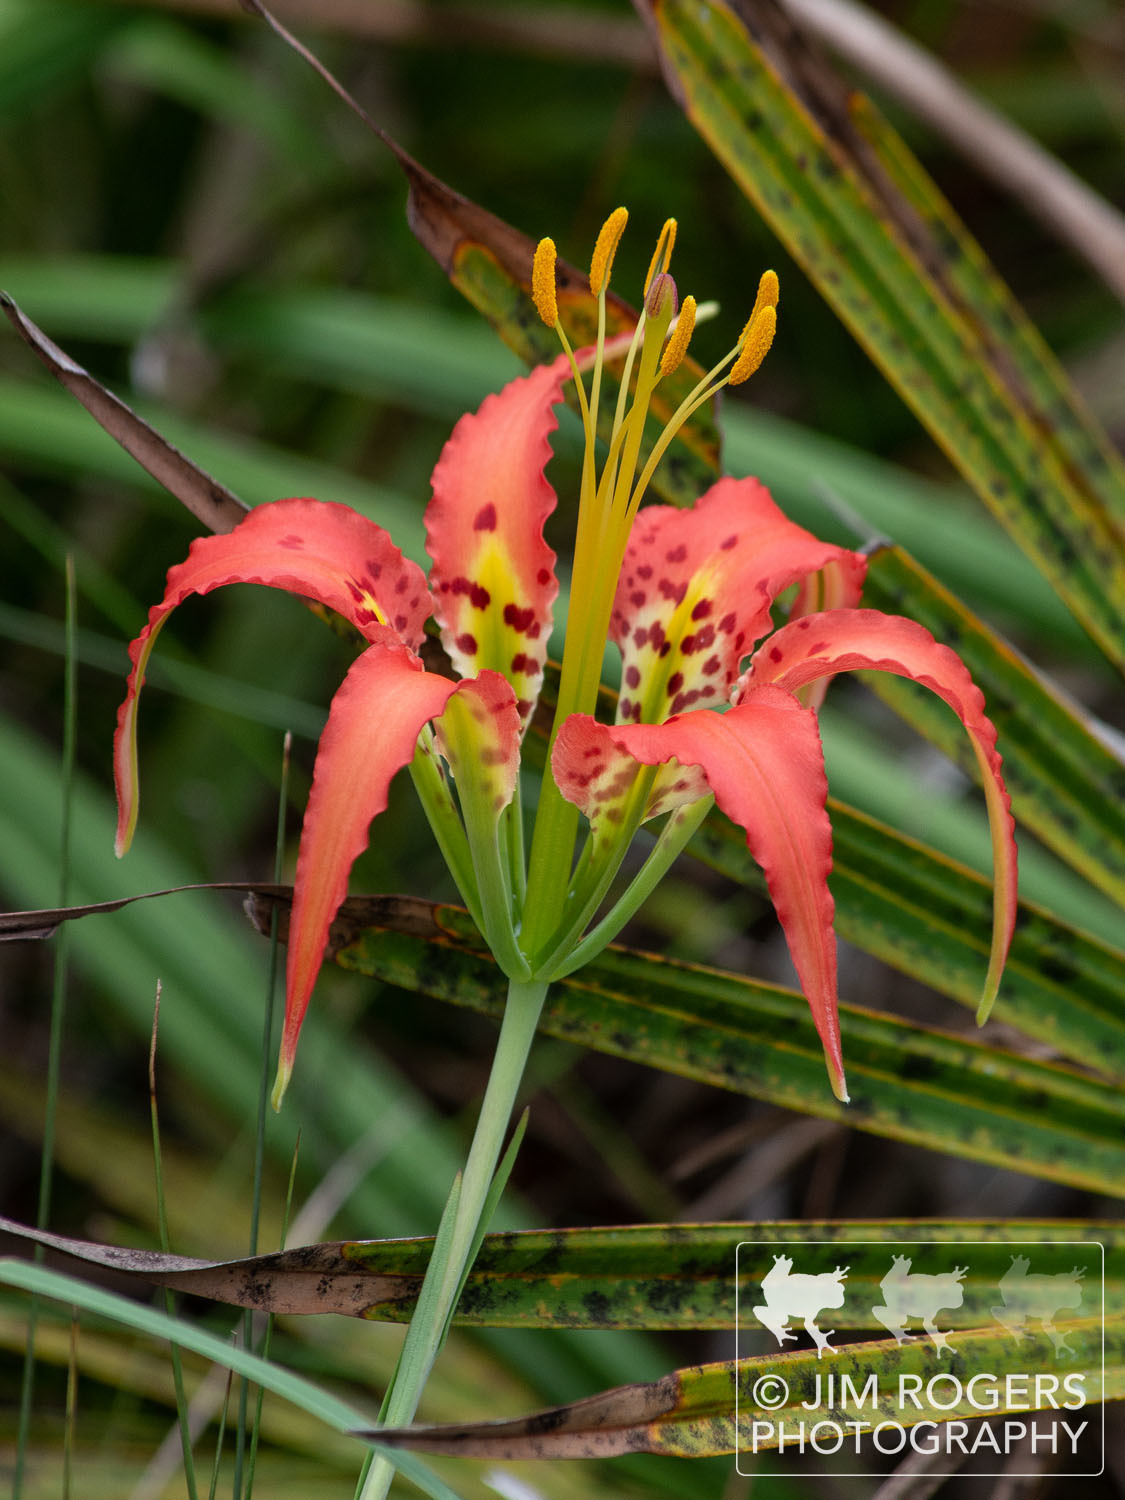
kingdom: Plantae
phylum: Tracheophyta
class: Liliopsida
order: Liliales
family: Liliaceae
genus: Lilium
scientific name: Lilium catesbaei
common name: Catesby's lily
